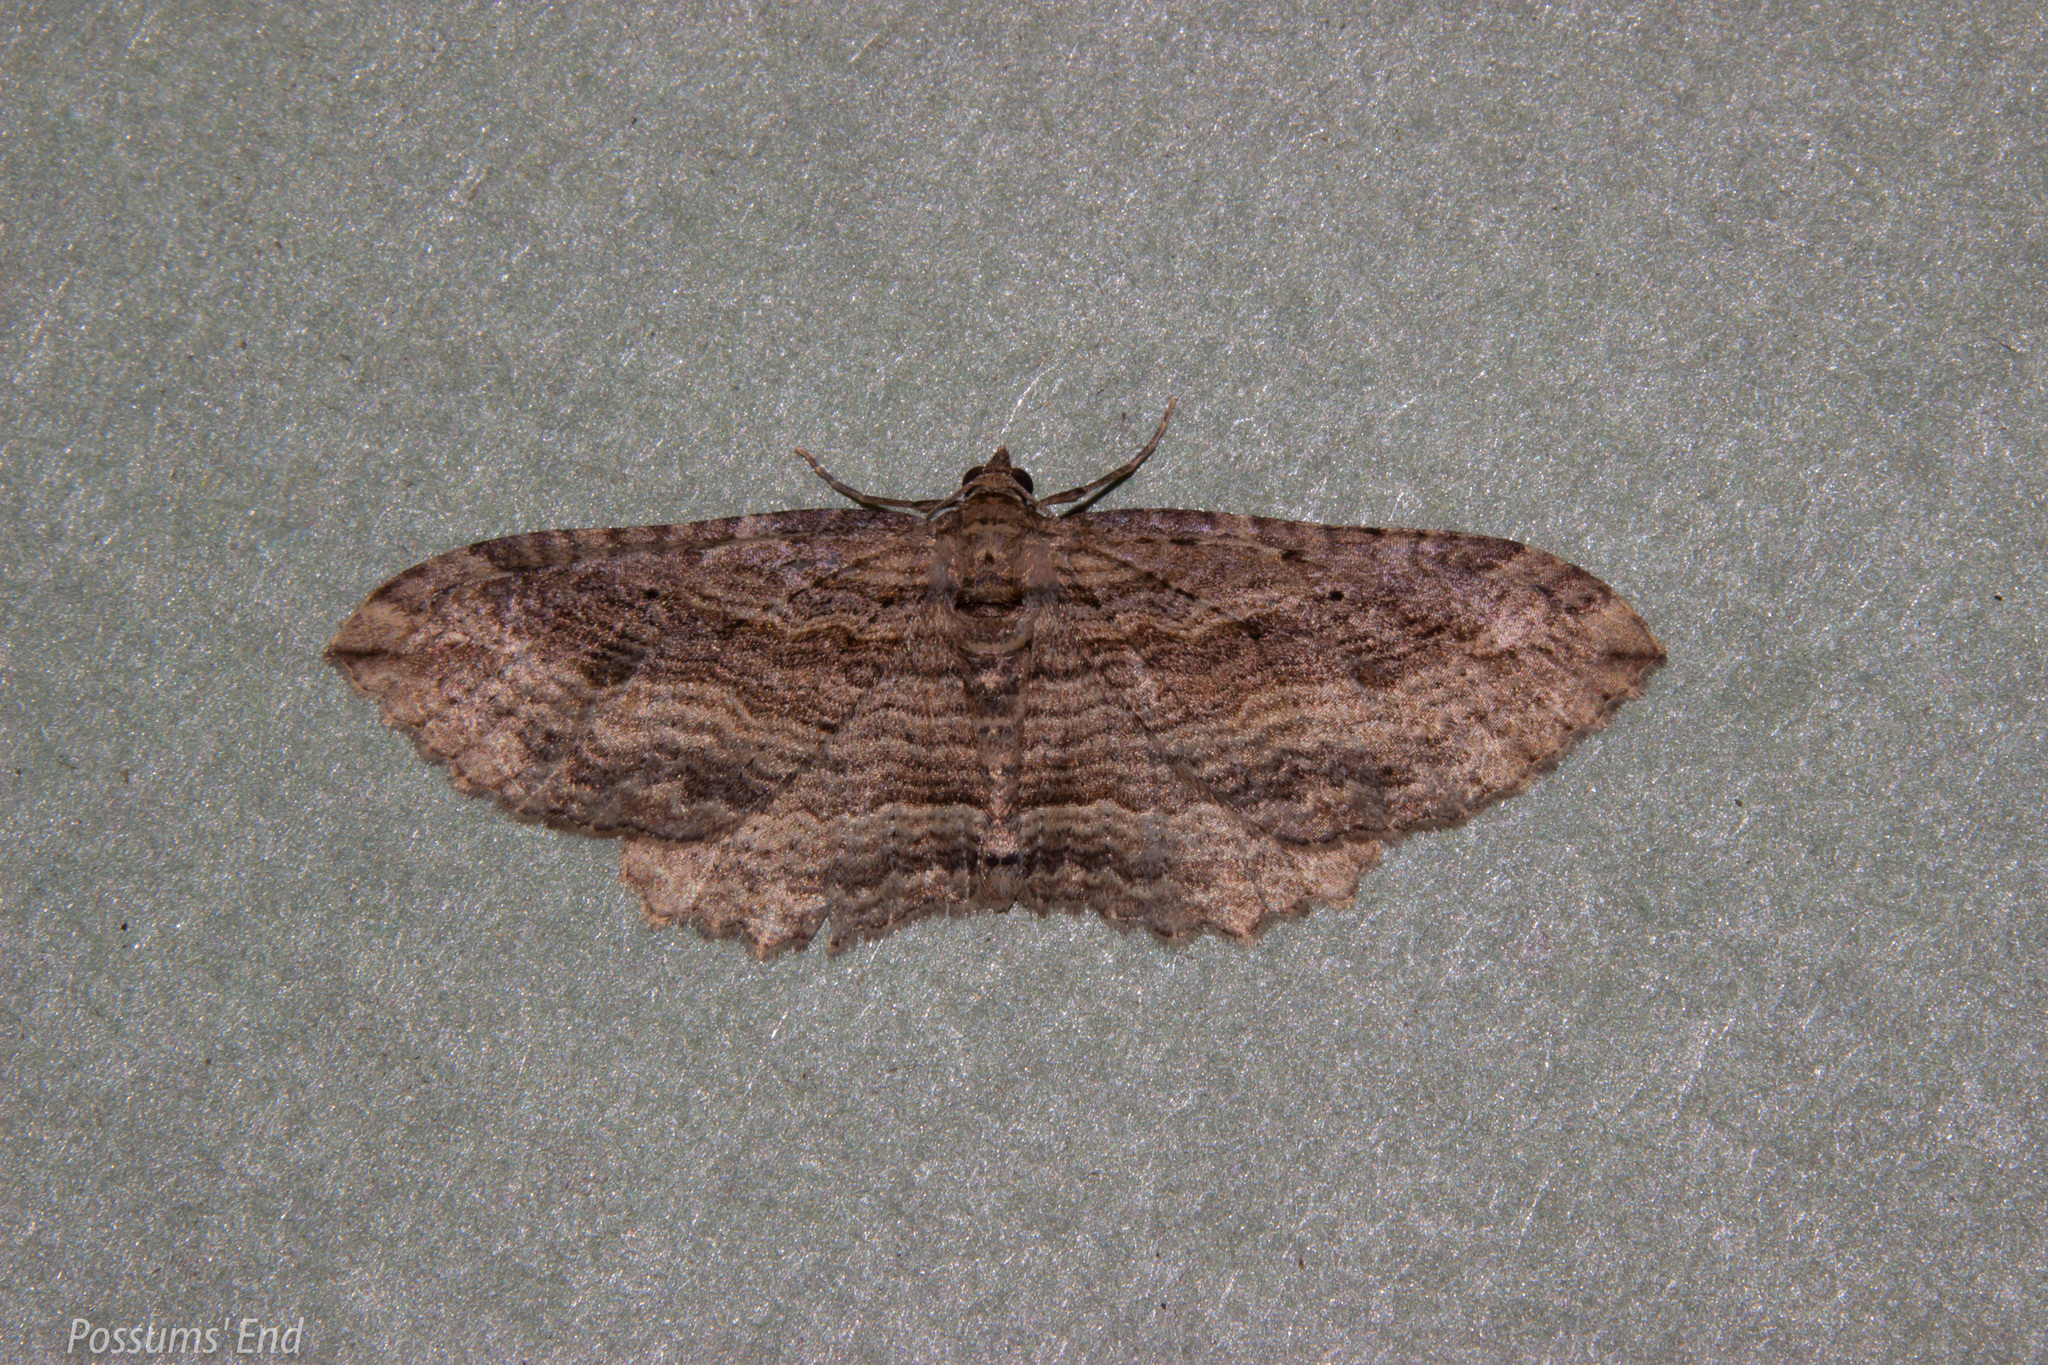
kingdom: Animalia
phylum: Arthropoda
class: Insecta
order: Lepidoptera
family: Geometridae
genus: Austrocidaria
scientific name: Austrocidaria gobiata
